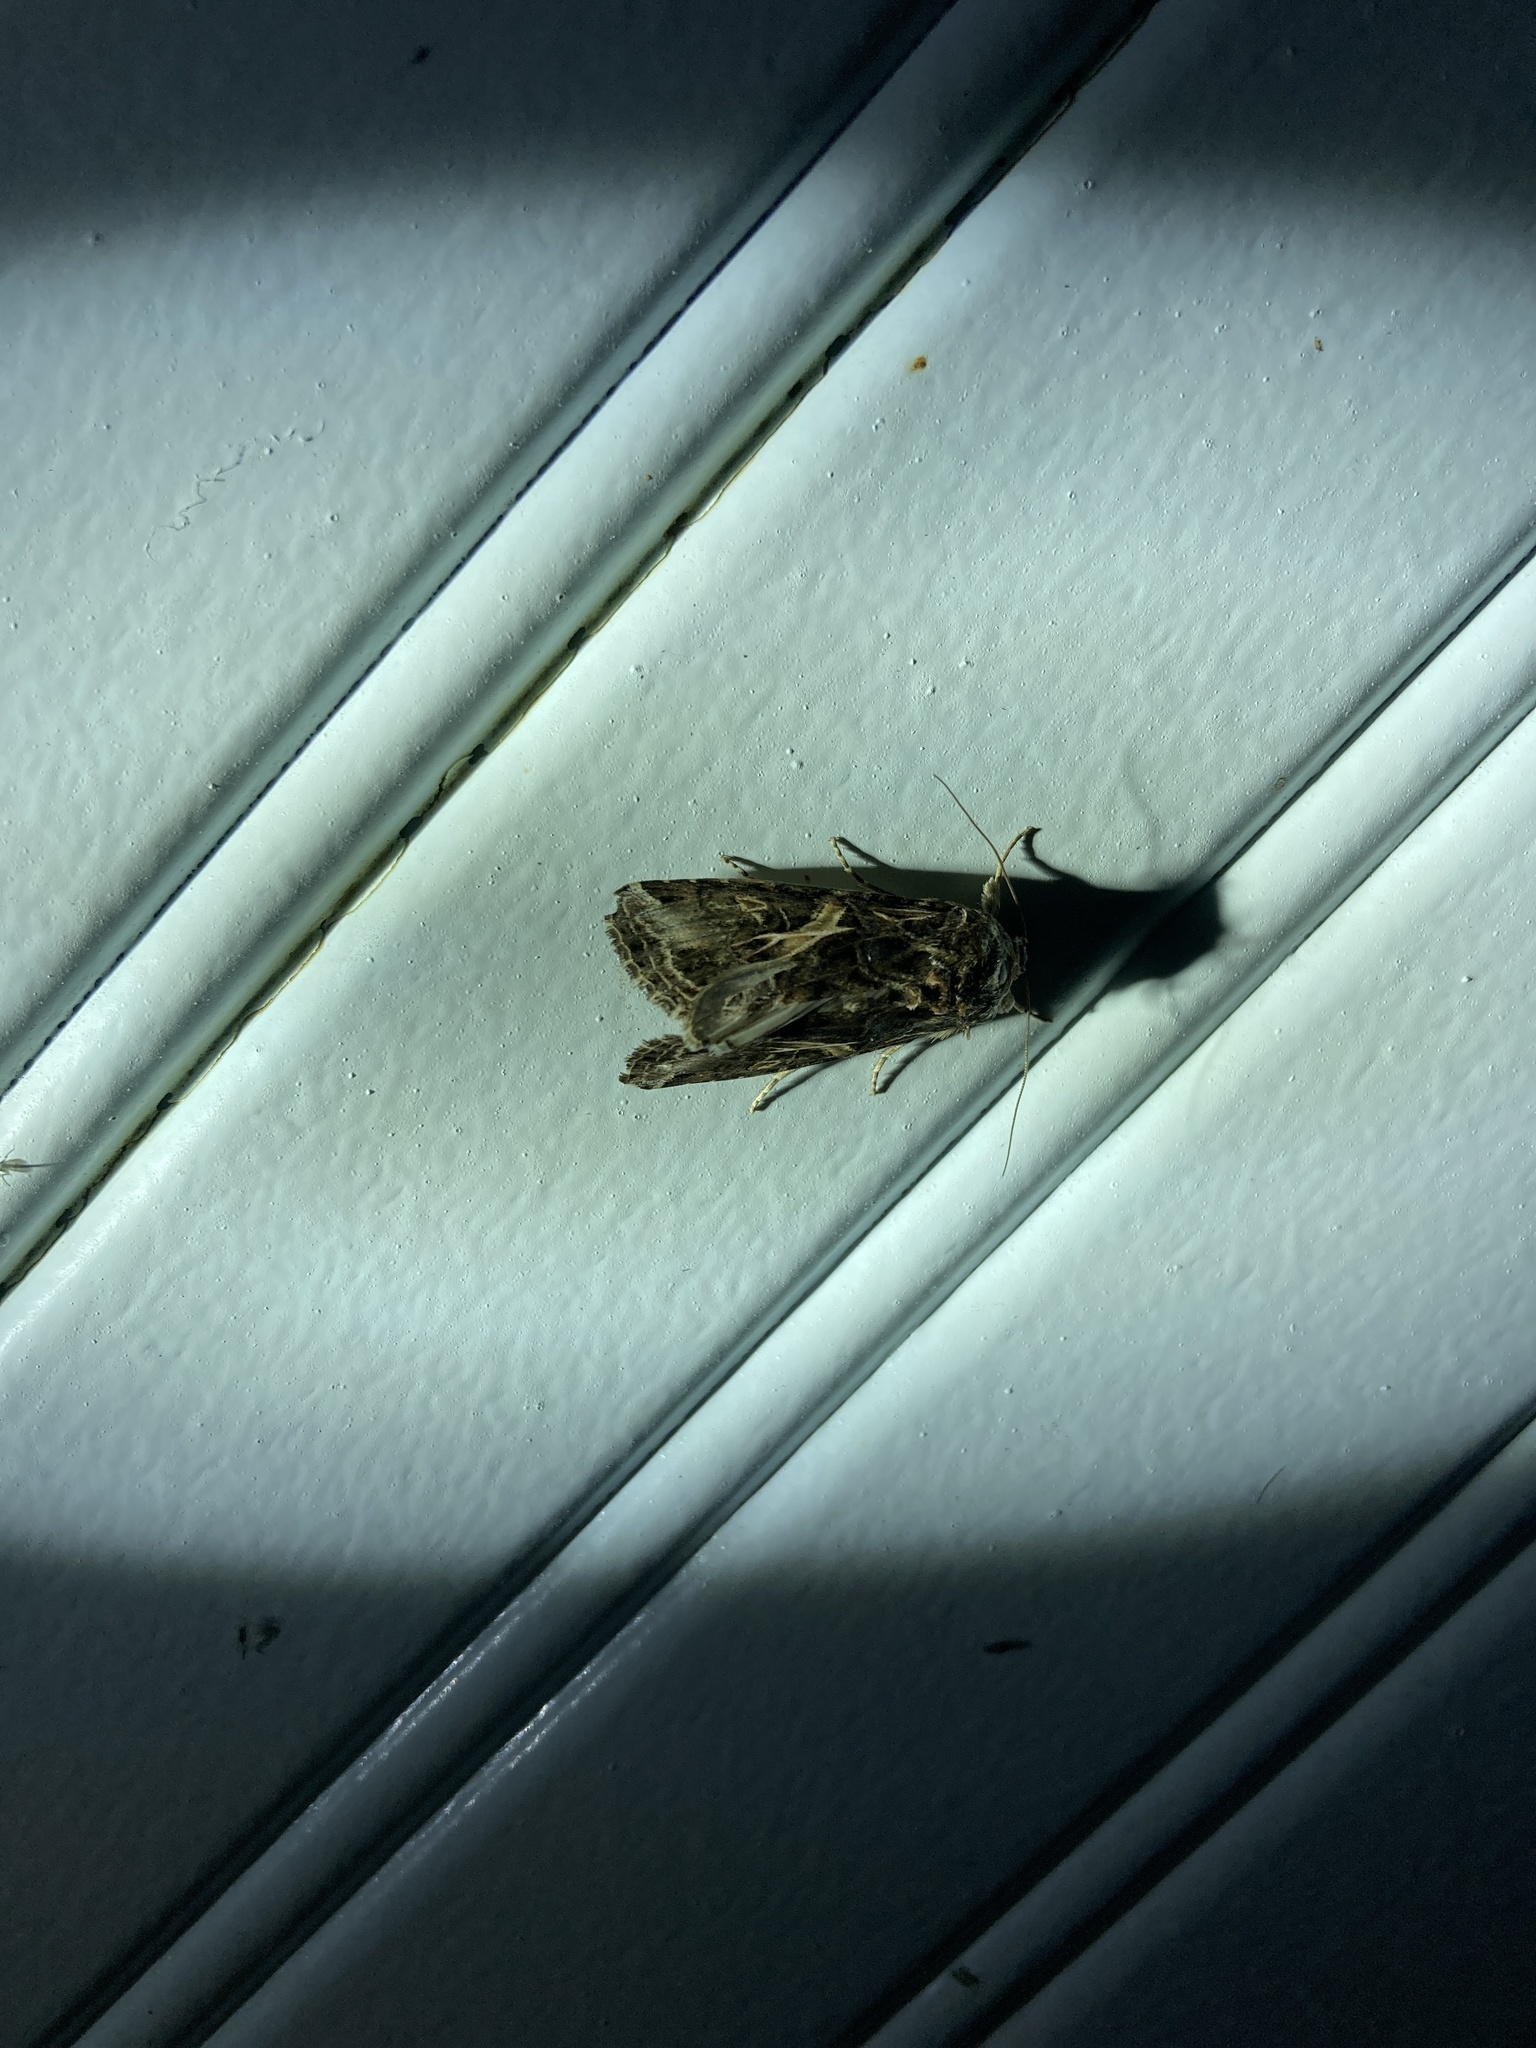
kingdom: Animalia
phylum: Arthropoda
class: Insecta
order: Lepidoptera
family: Noctuidae
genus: Spodoptera
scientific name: Spodoptera ornithogalli
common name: Yellow-striped armyworm
